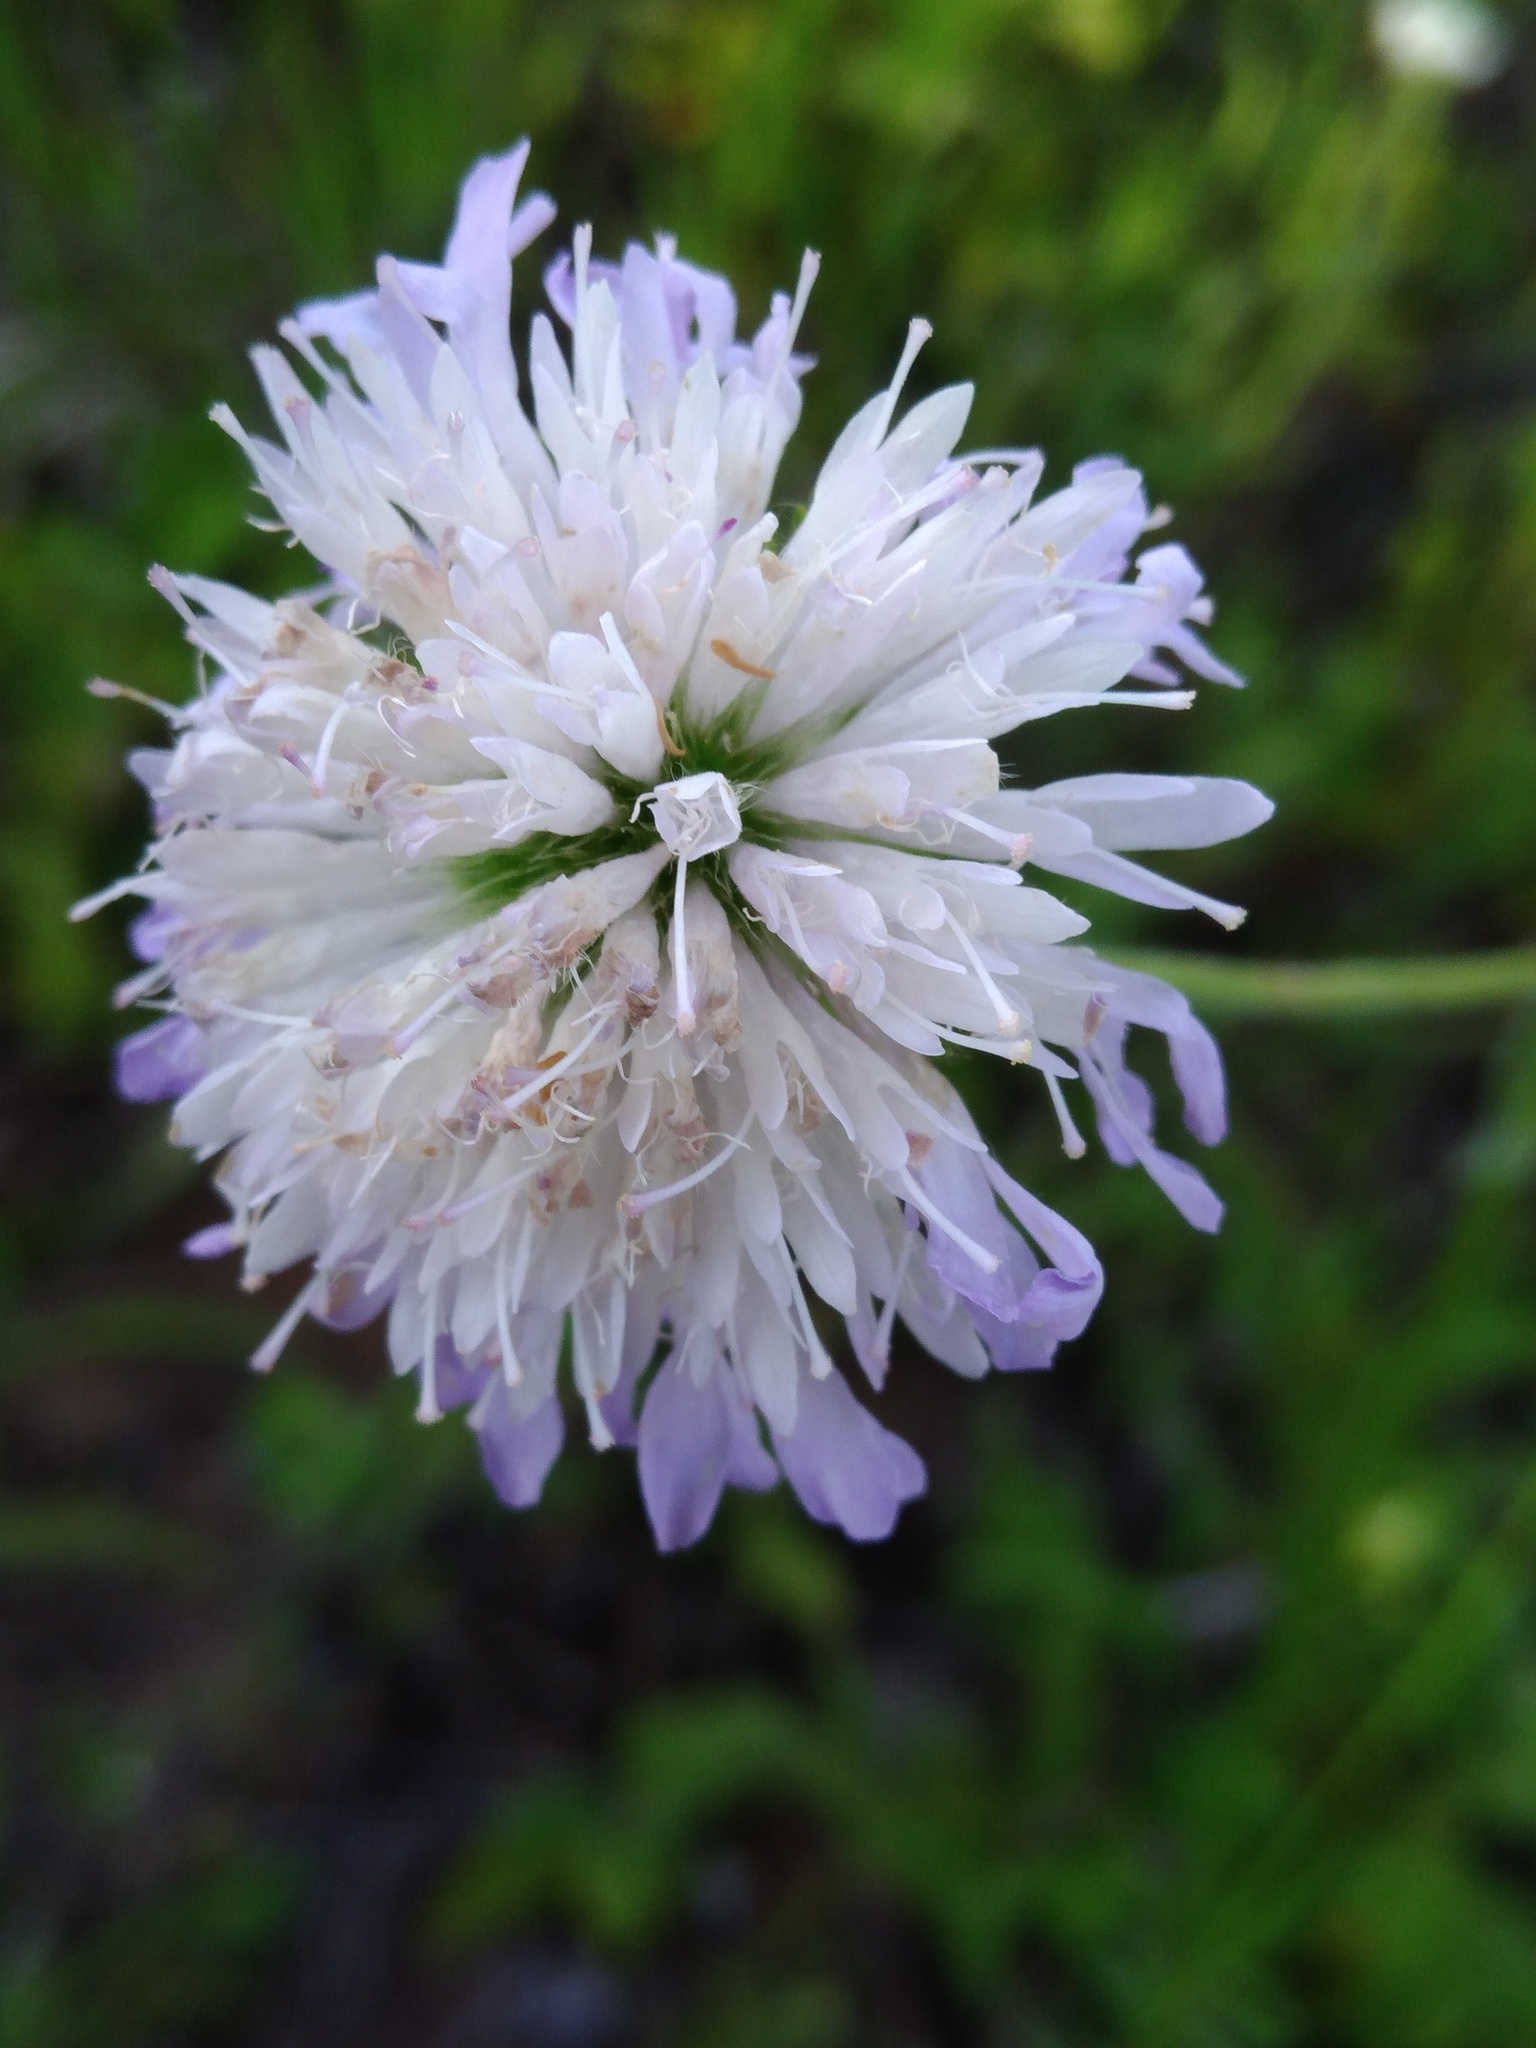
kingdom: Plantae
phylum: Tracheophyta
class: Magnoliopsida
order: Dipsacales
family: Caprifoliaceae
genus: Knautia
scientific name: Knautia arvensis
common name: Field scabiosa
